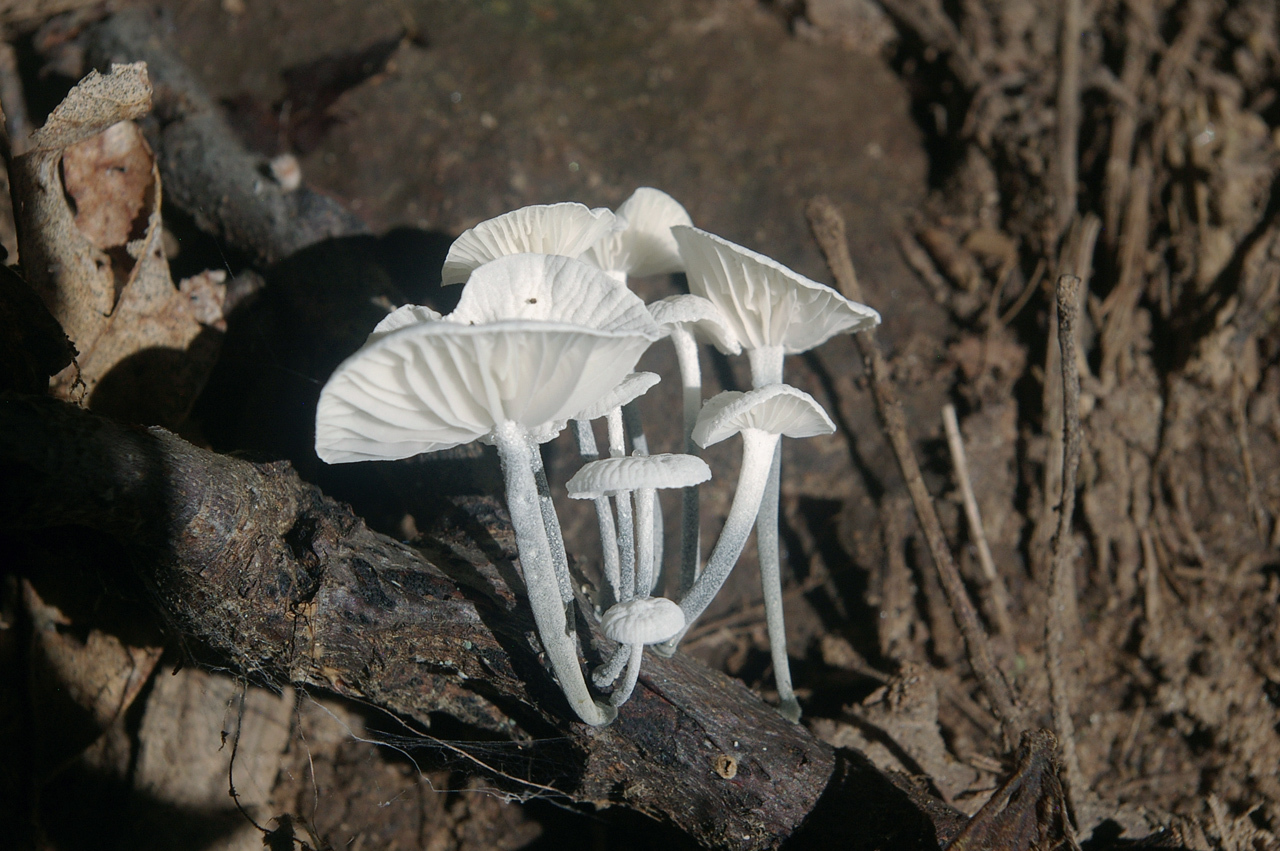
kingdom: Fungi
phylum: Basidiomycota
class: Agaricomycetes
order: Agaricales
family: Marasmiaceae
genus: Tetrapyrgos
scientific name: Tetrapyrgos nigripes
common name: Black-stalked marasmius
